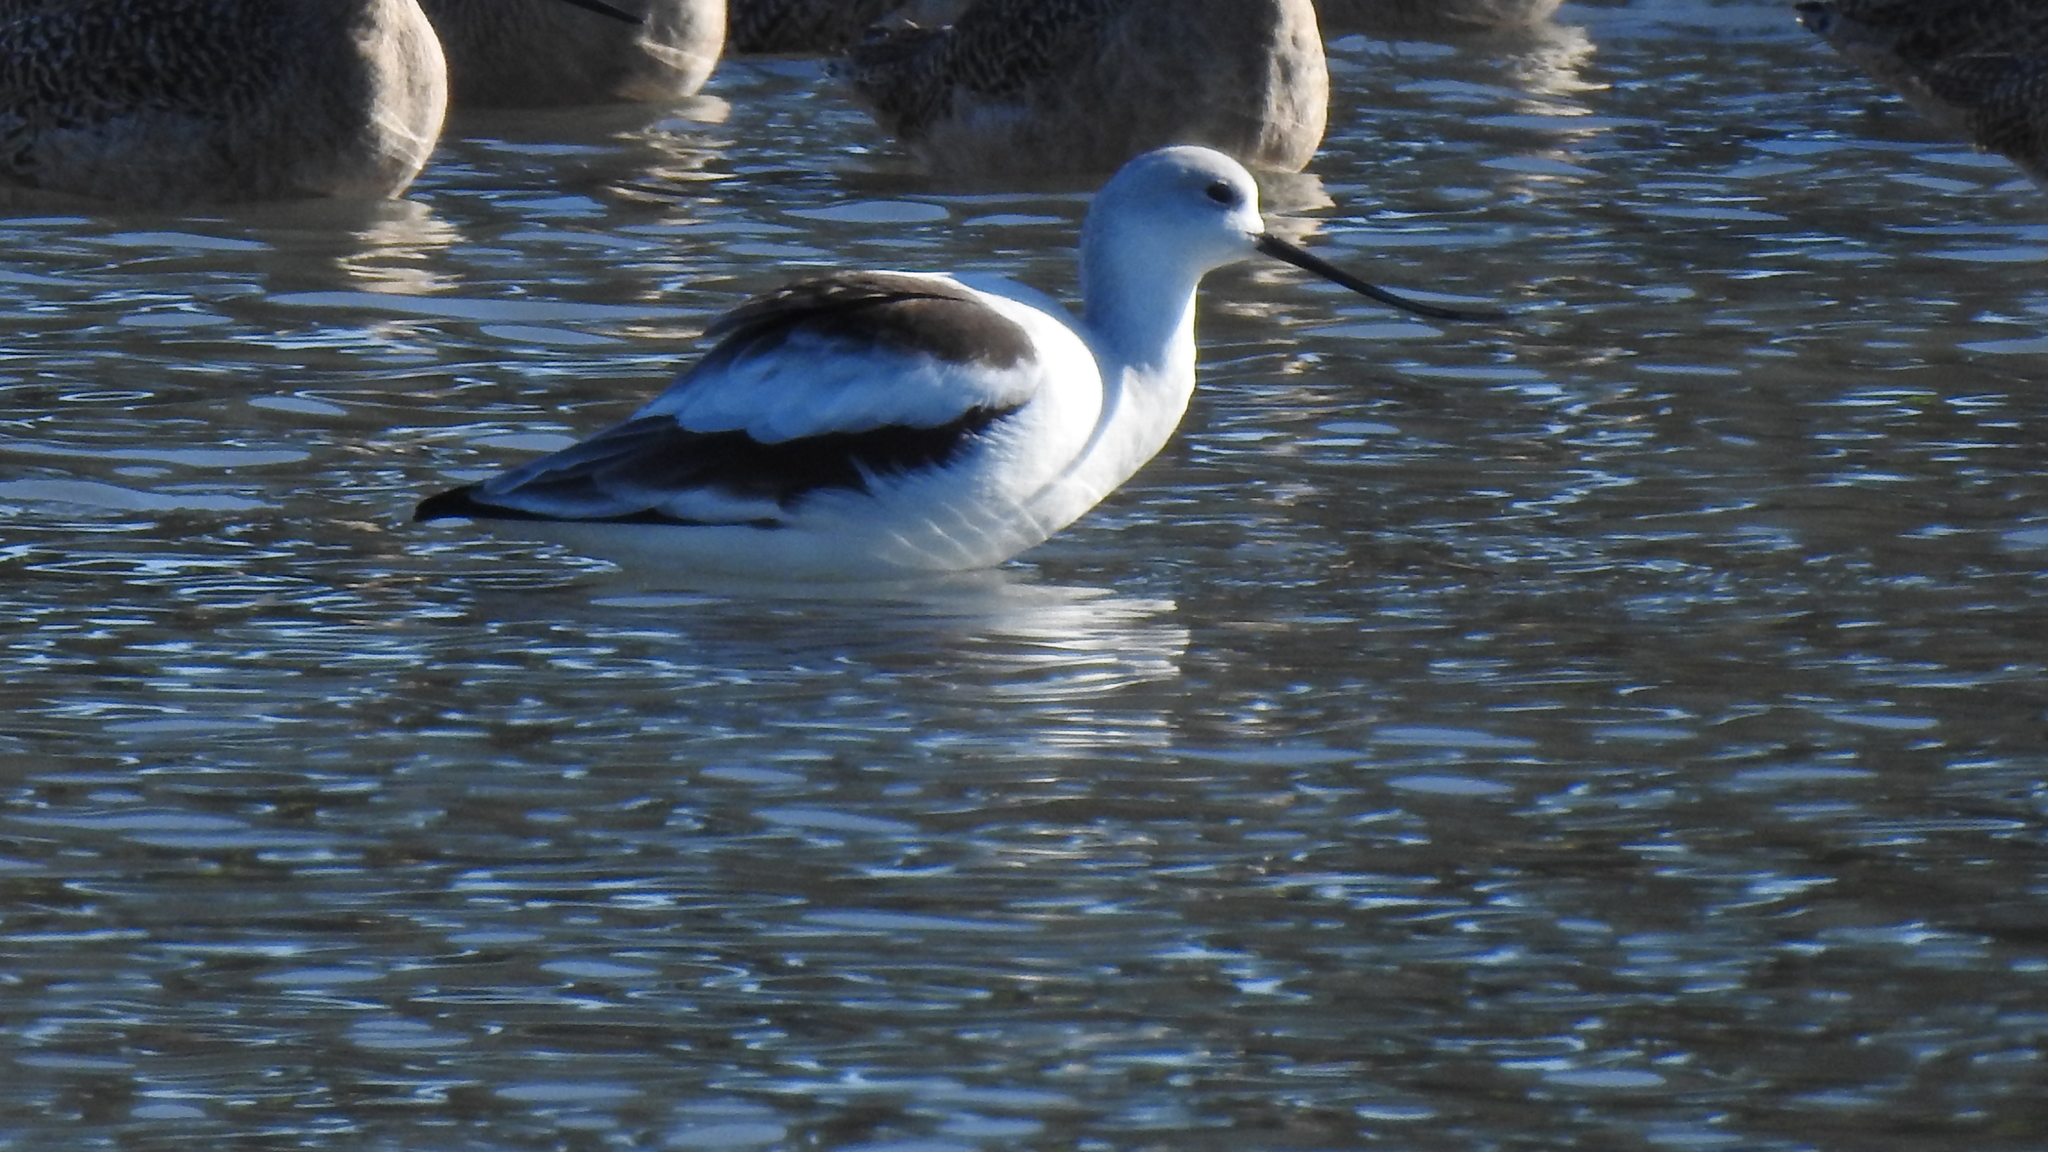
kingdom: Animalia
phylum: Chordata
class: Aves
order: Charadriiformes
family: Recurvirostridae
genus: Recurvirostra
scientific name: Recurvirostra americana
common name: American avocet
